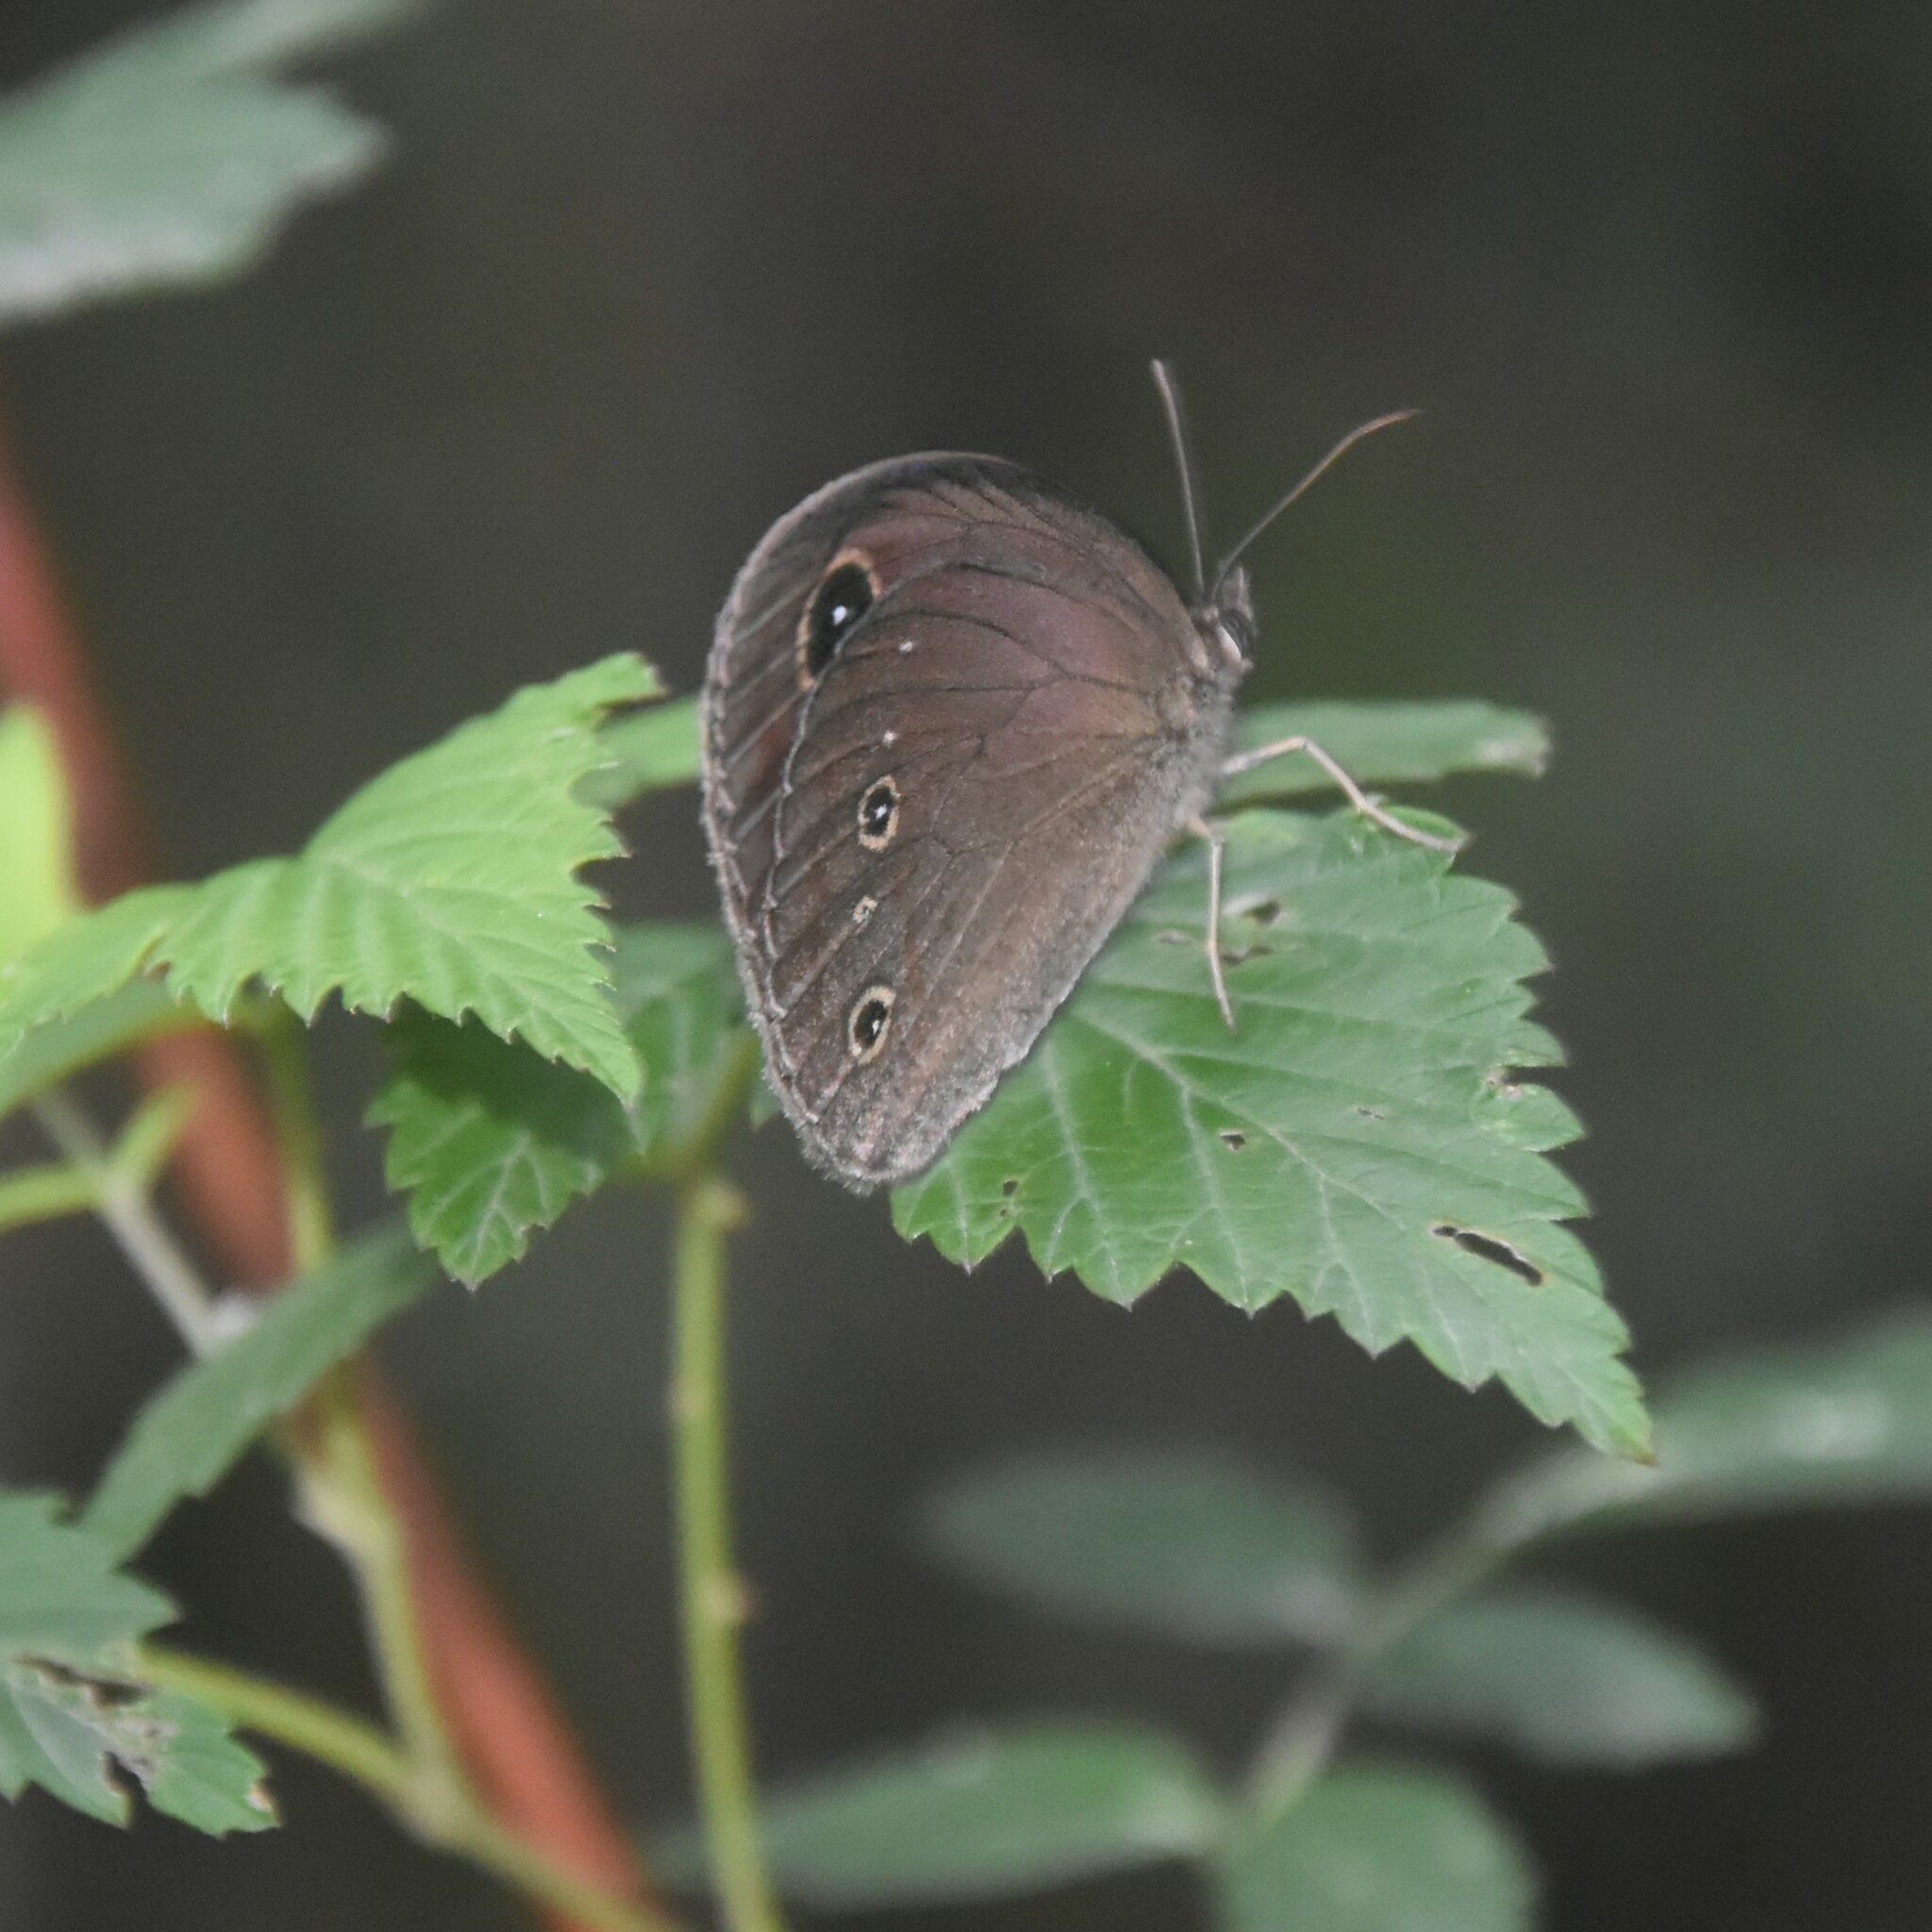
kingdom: Animalia
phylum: Arthropoda
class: Insecta
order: Lepidoptera
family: Nymphalidae
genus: Callerebia
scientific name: Callerebia nirmala
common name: Common argus
